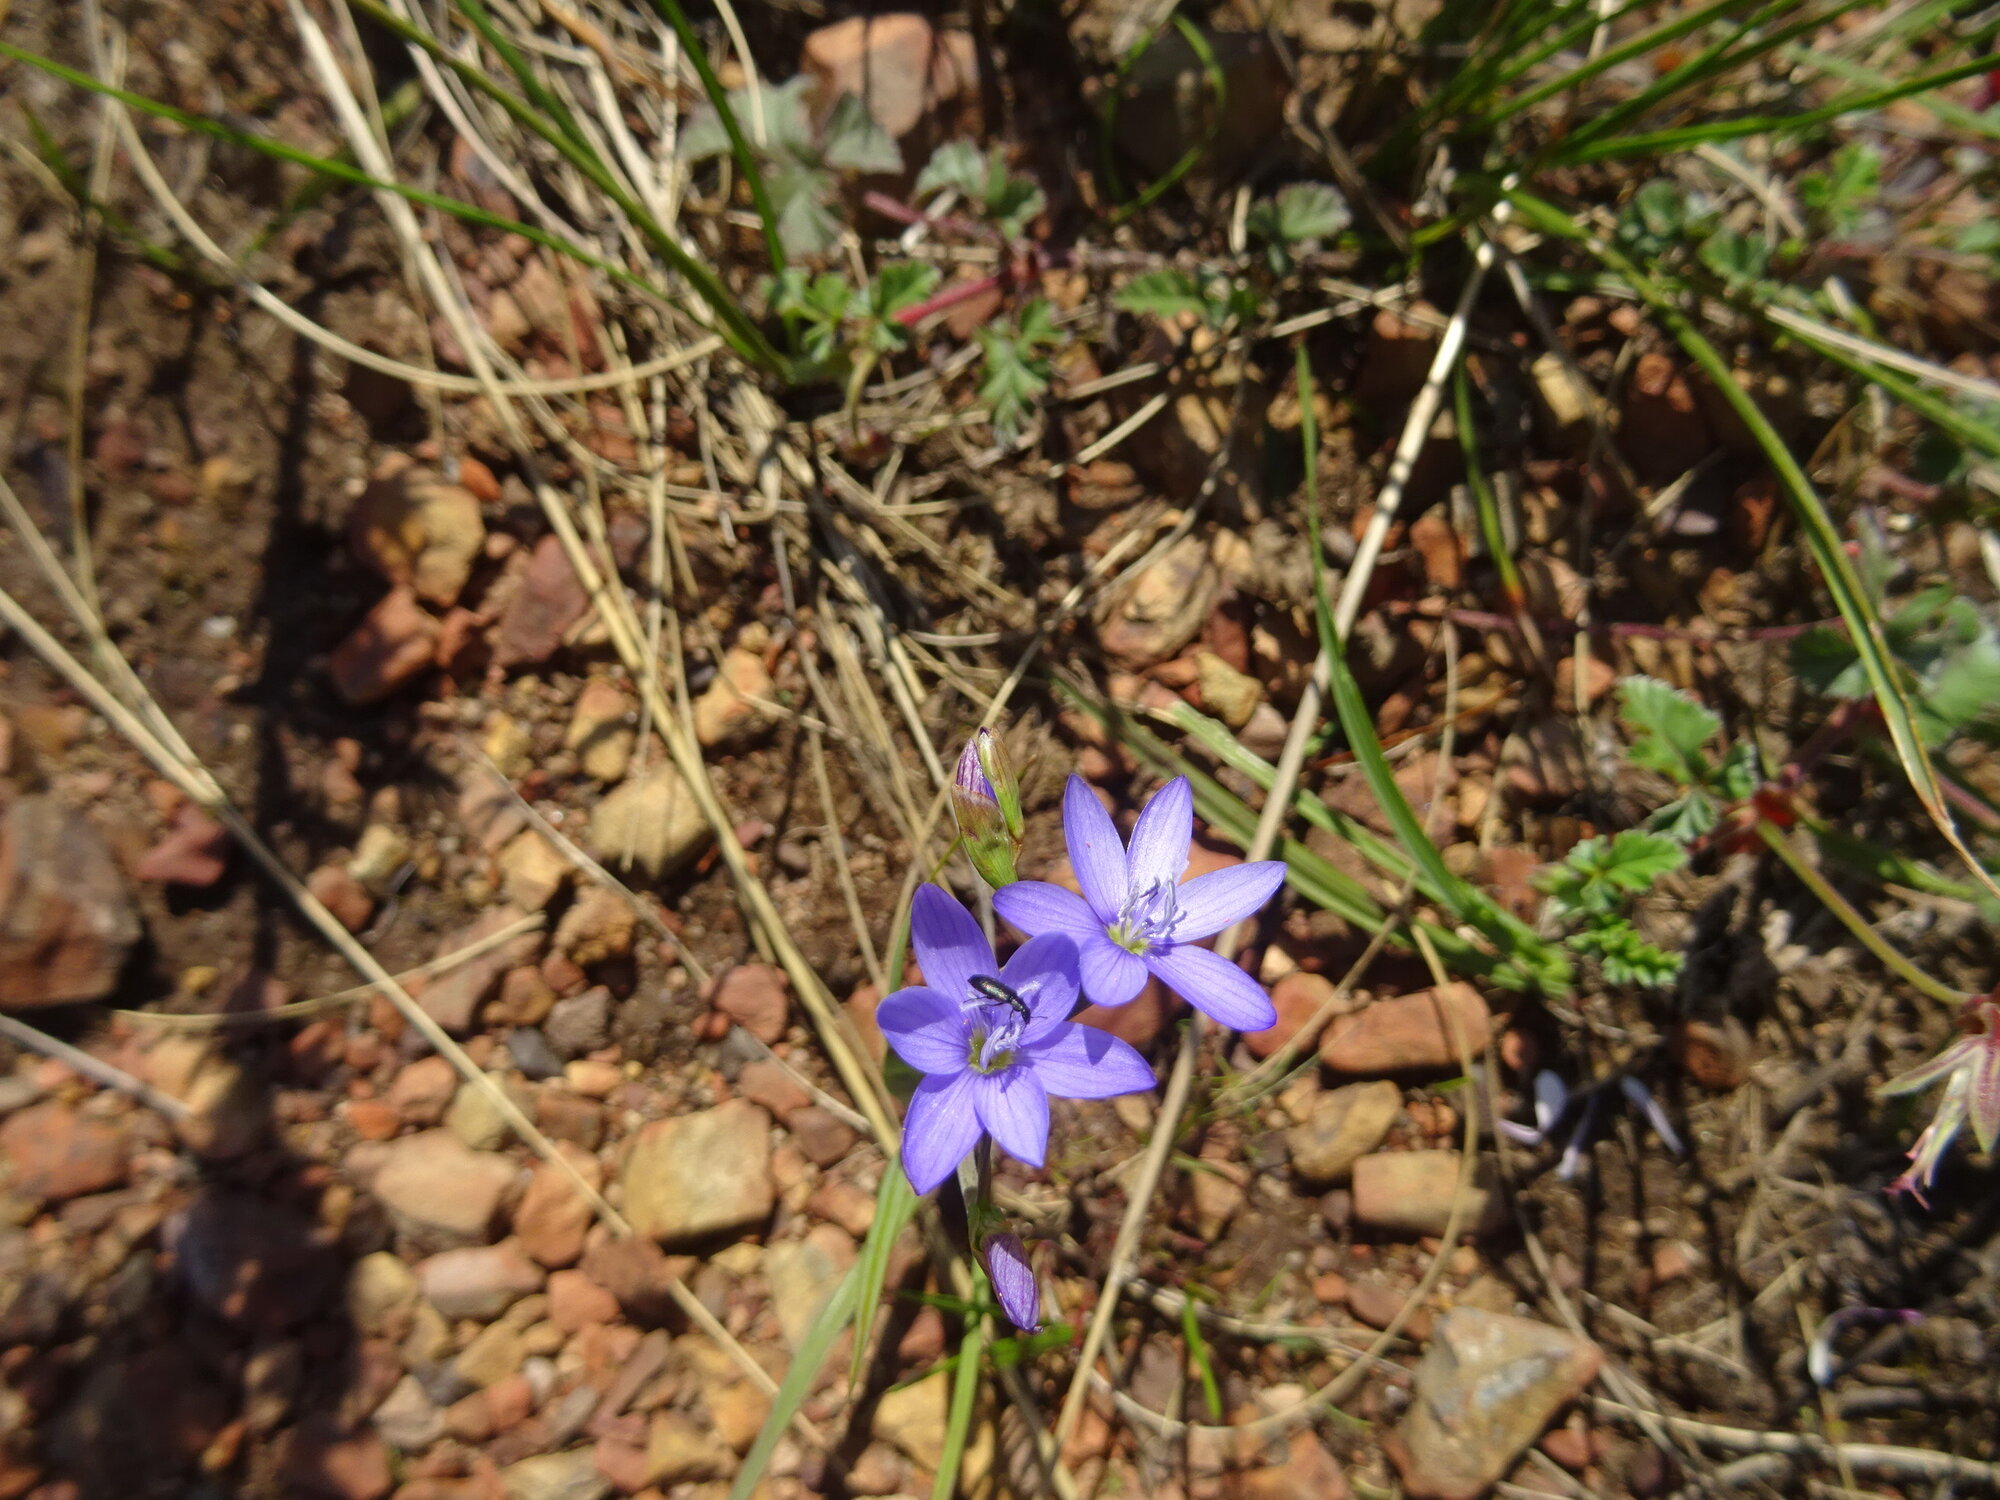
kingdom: Plantae
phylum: Tracheophyta
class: Liliopsida
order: Asparagales
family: Iridaceae
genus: Geissorhiza
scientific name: Geissorhiza aspera
